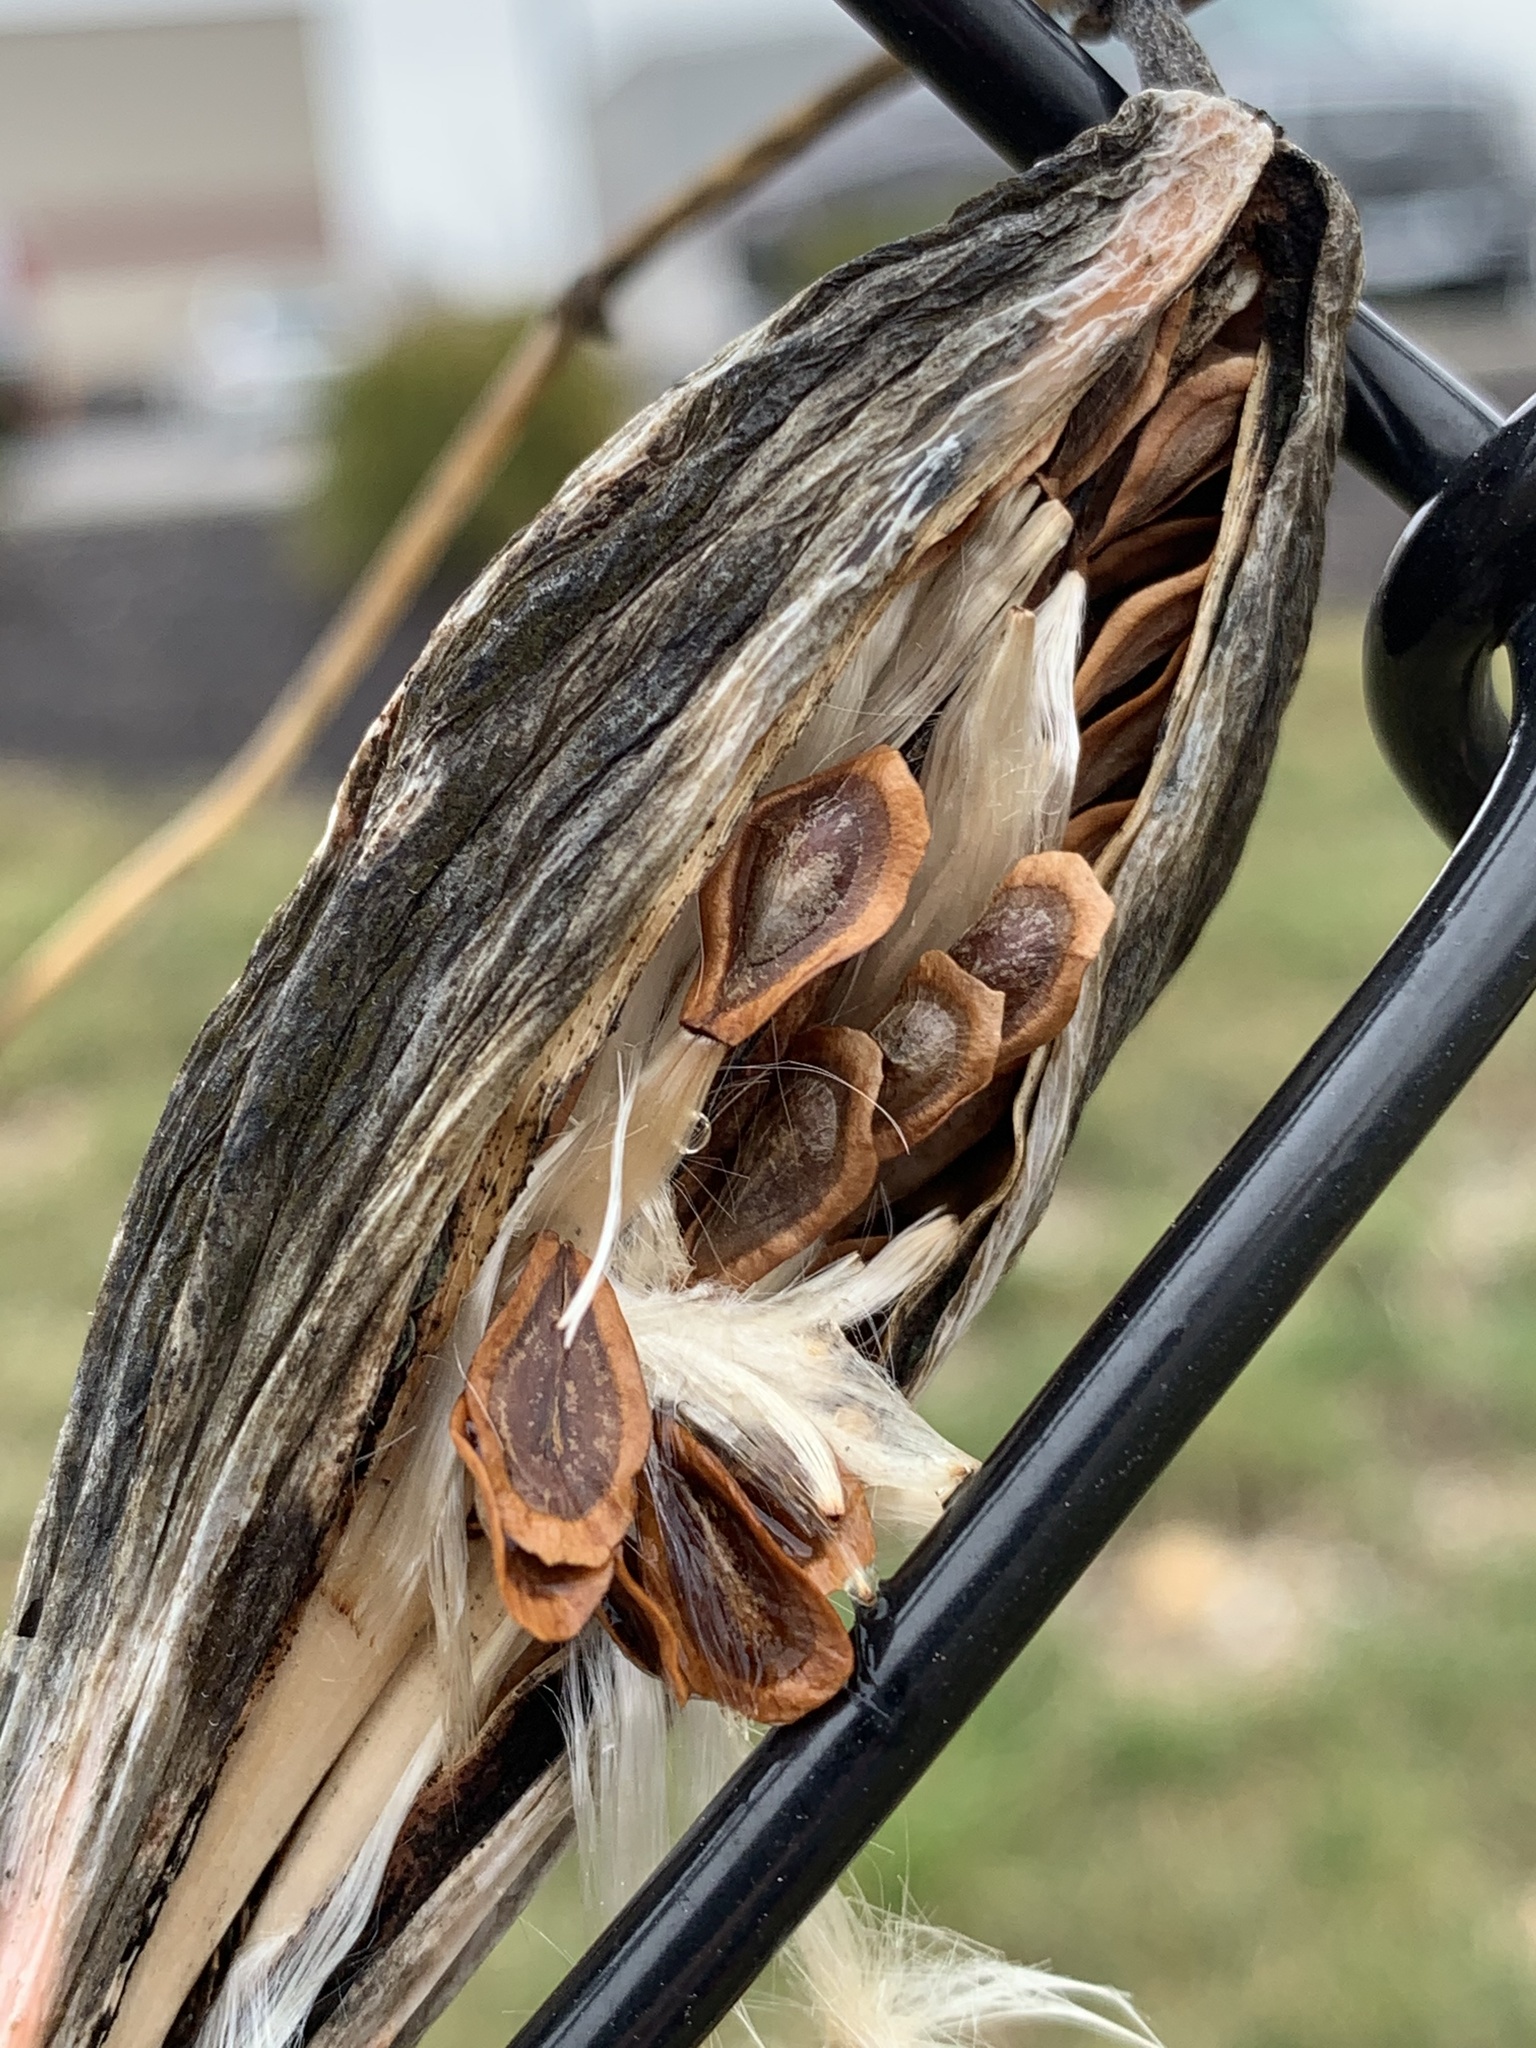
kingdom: Plantae
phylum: Tracheophyta
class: Magnoliopsida
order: Gentianales
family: Apocynaceae
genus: Cynanchum
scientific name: Cynanchum laeve
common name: Sandvine
